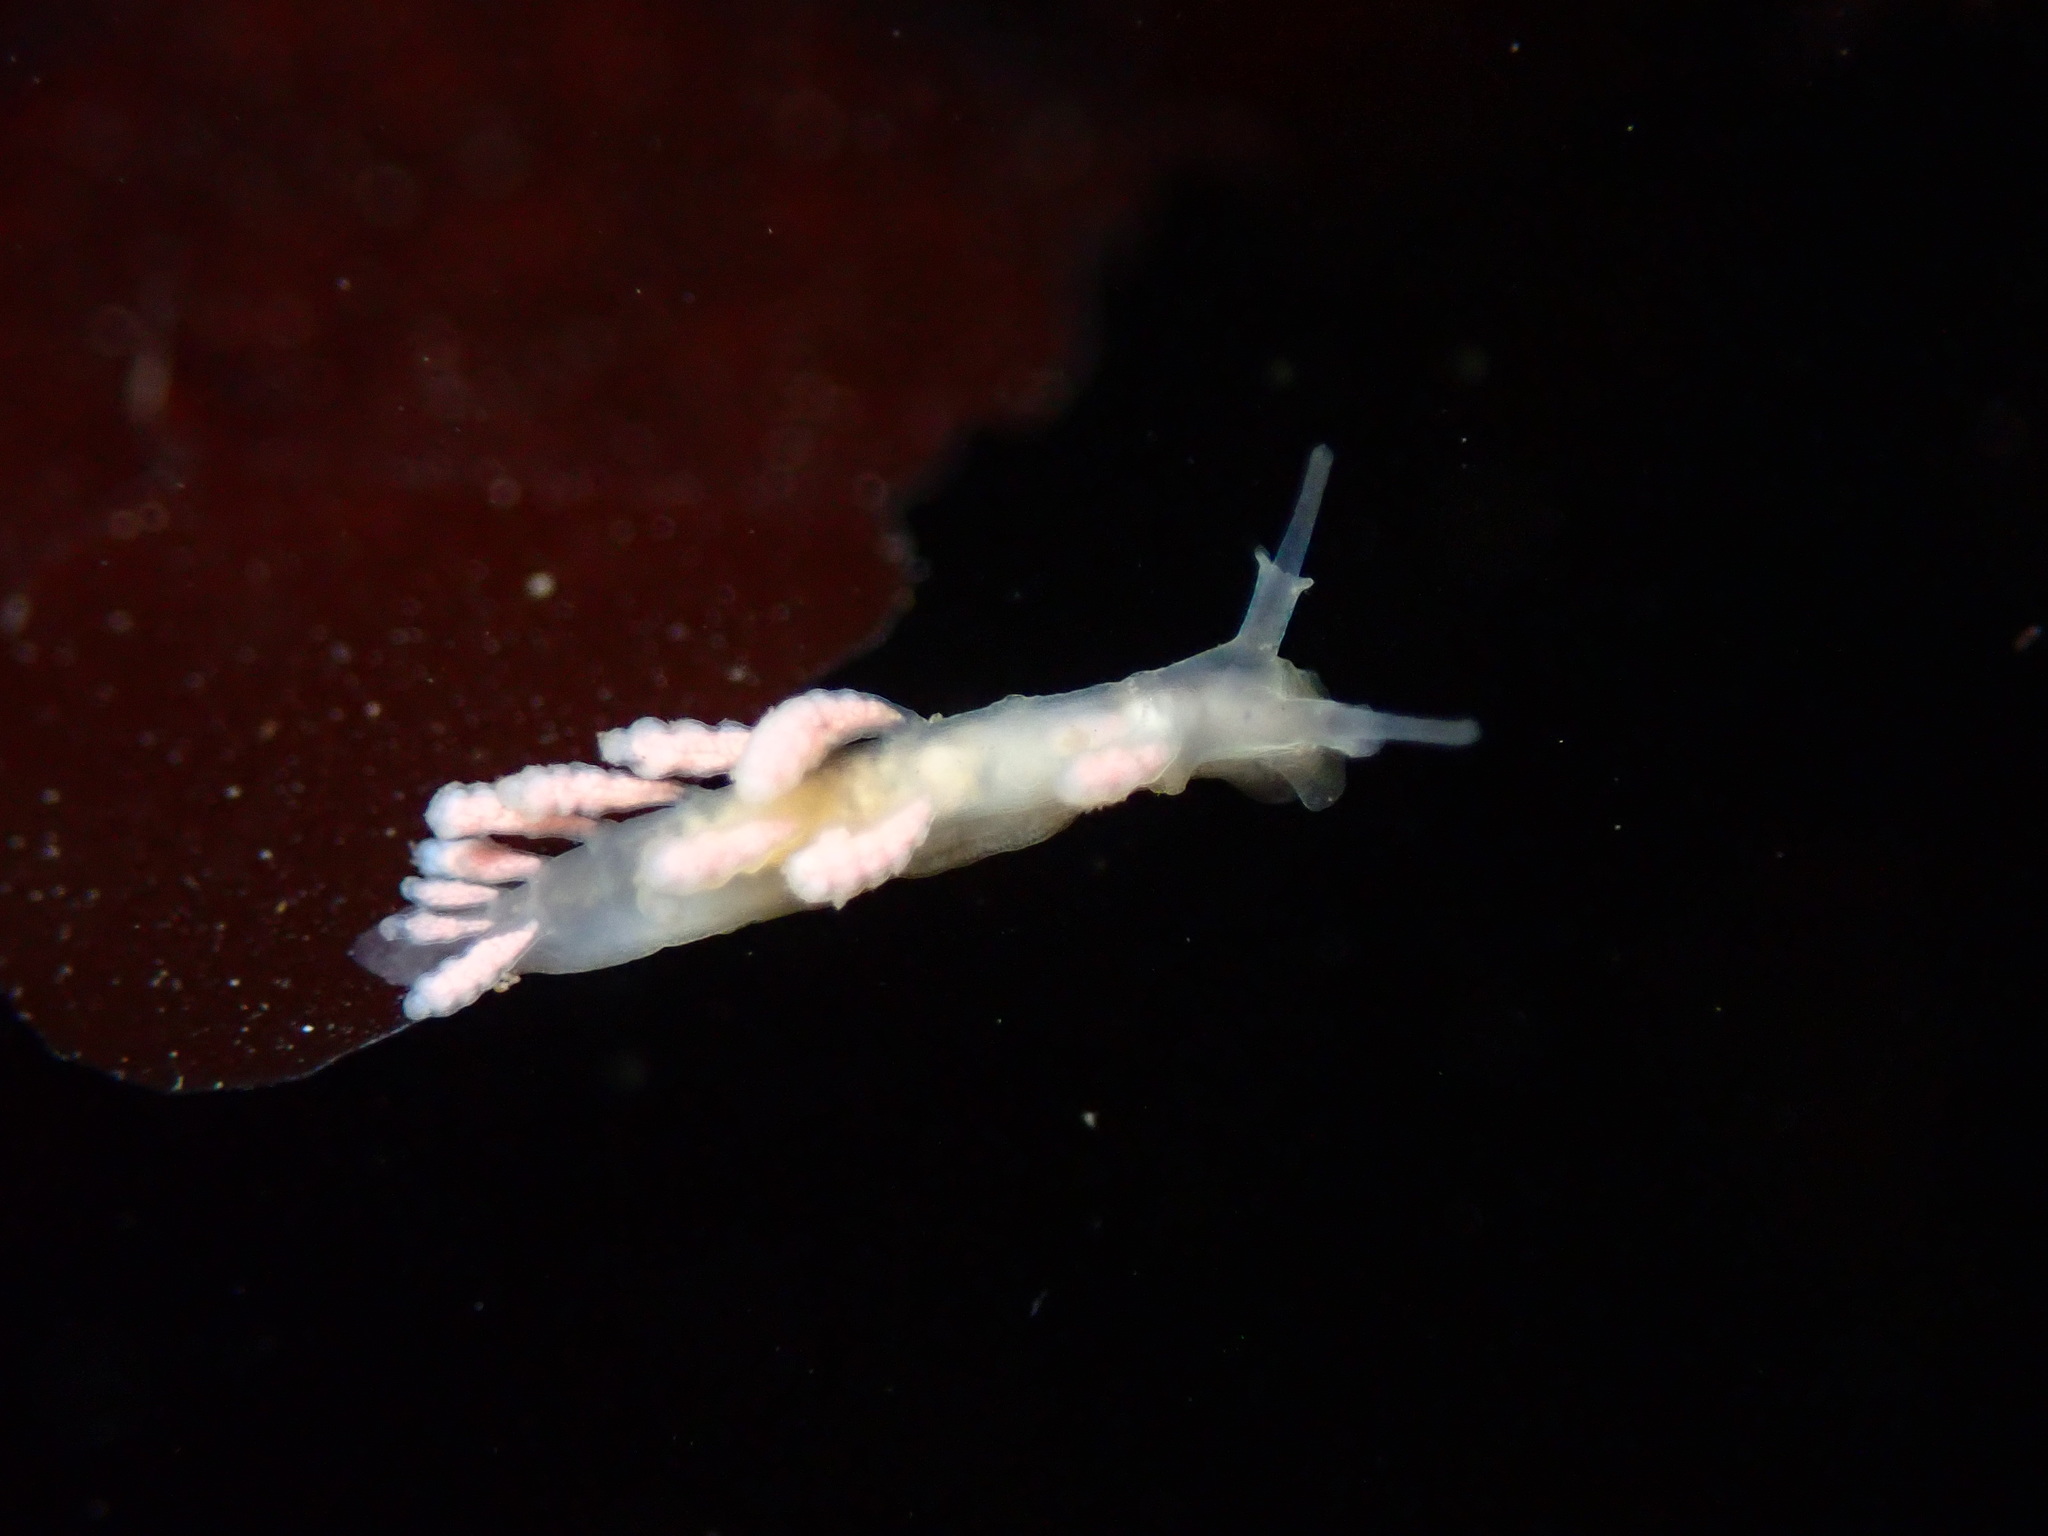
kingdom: Animalia
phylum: Mollusca
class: Gastropoda
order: Nudibranchia
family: Dotidae
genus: Doto
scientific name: Doto amyra
